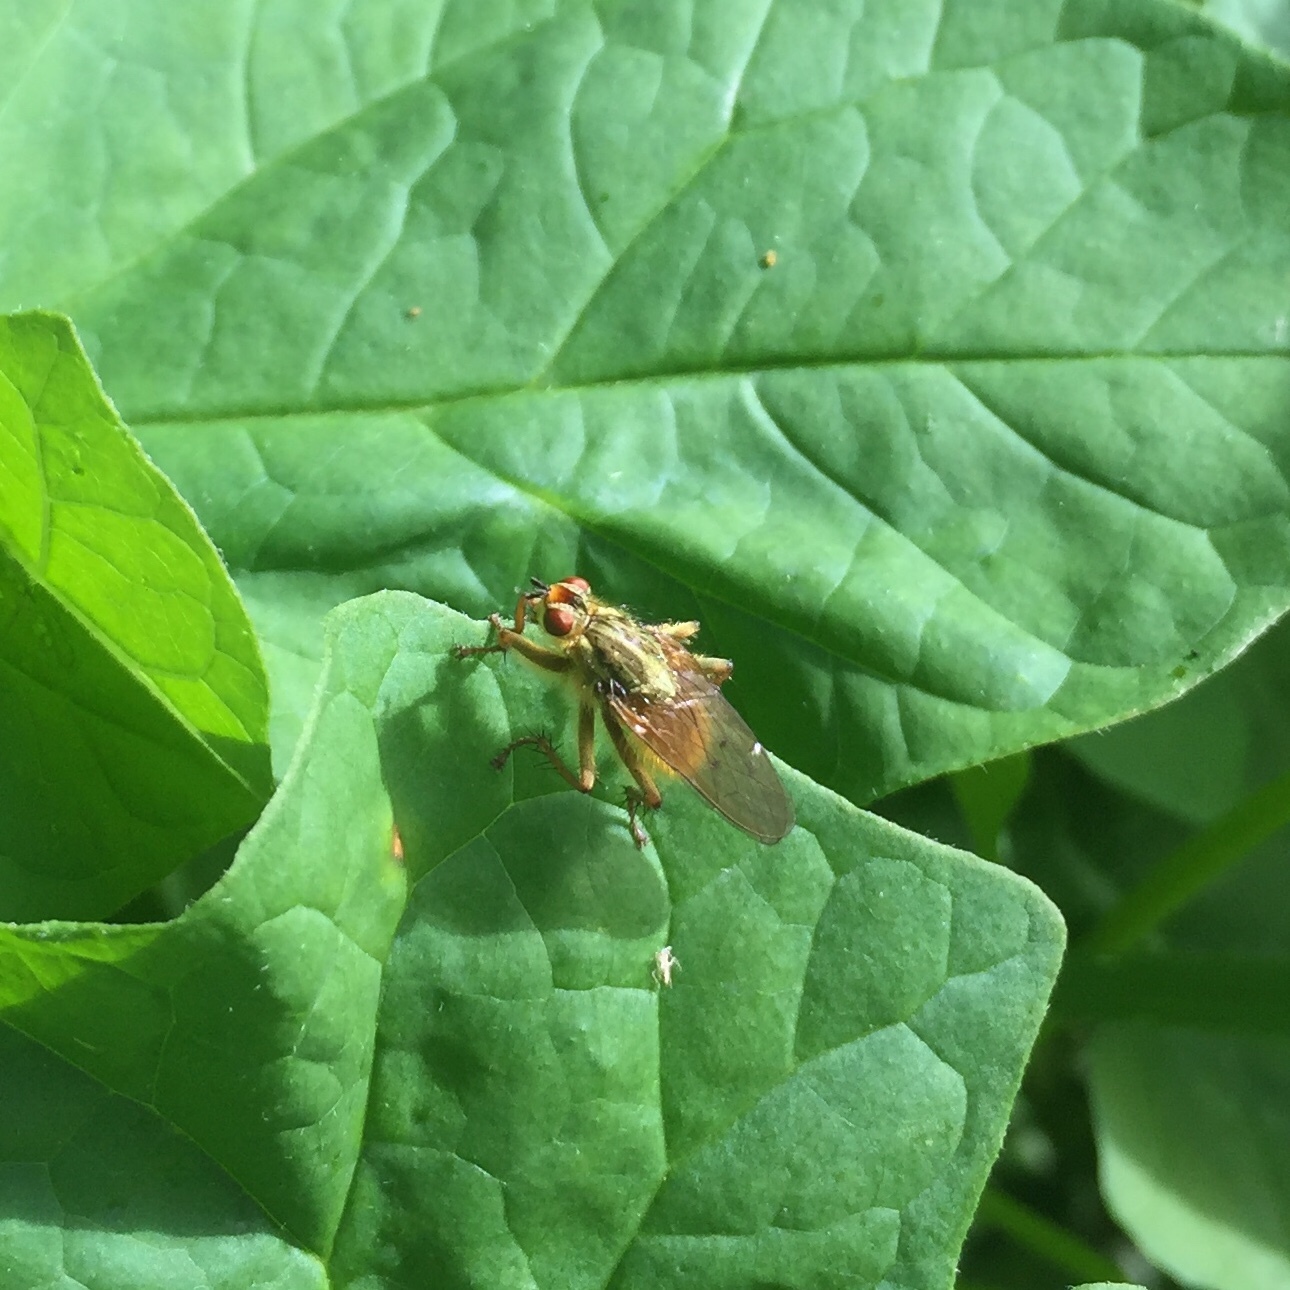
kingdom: Animalia
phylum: Arthropoda
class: Insecta
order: Diptera
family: Scathophagidae
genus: Scathophaga
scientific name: Scathophaga stercoraria
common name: Yellow dung fly
